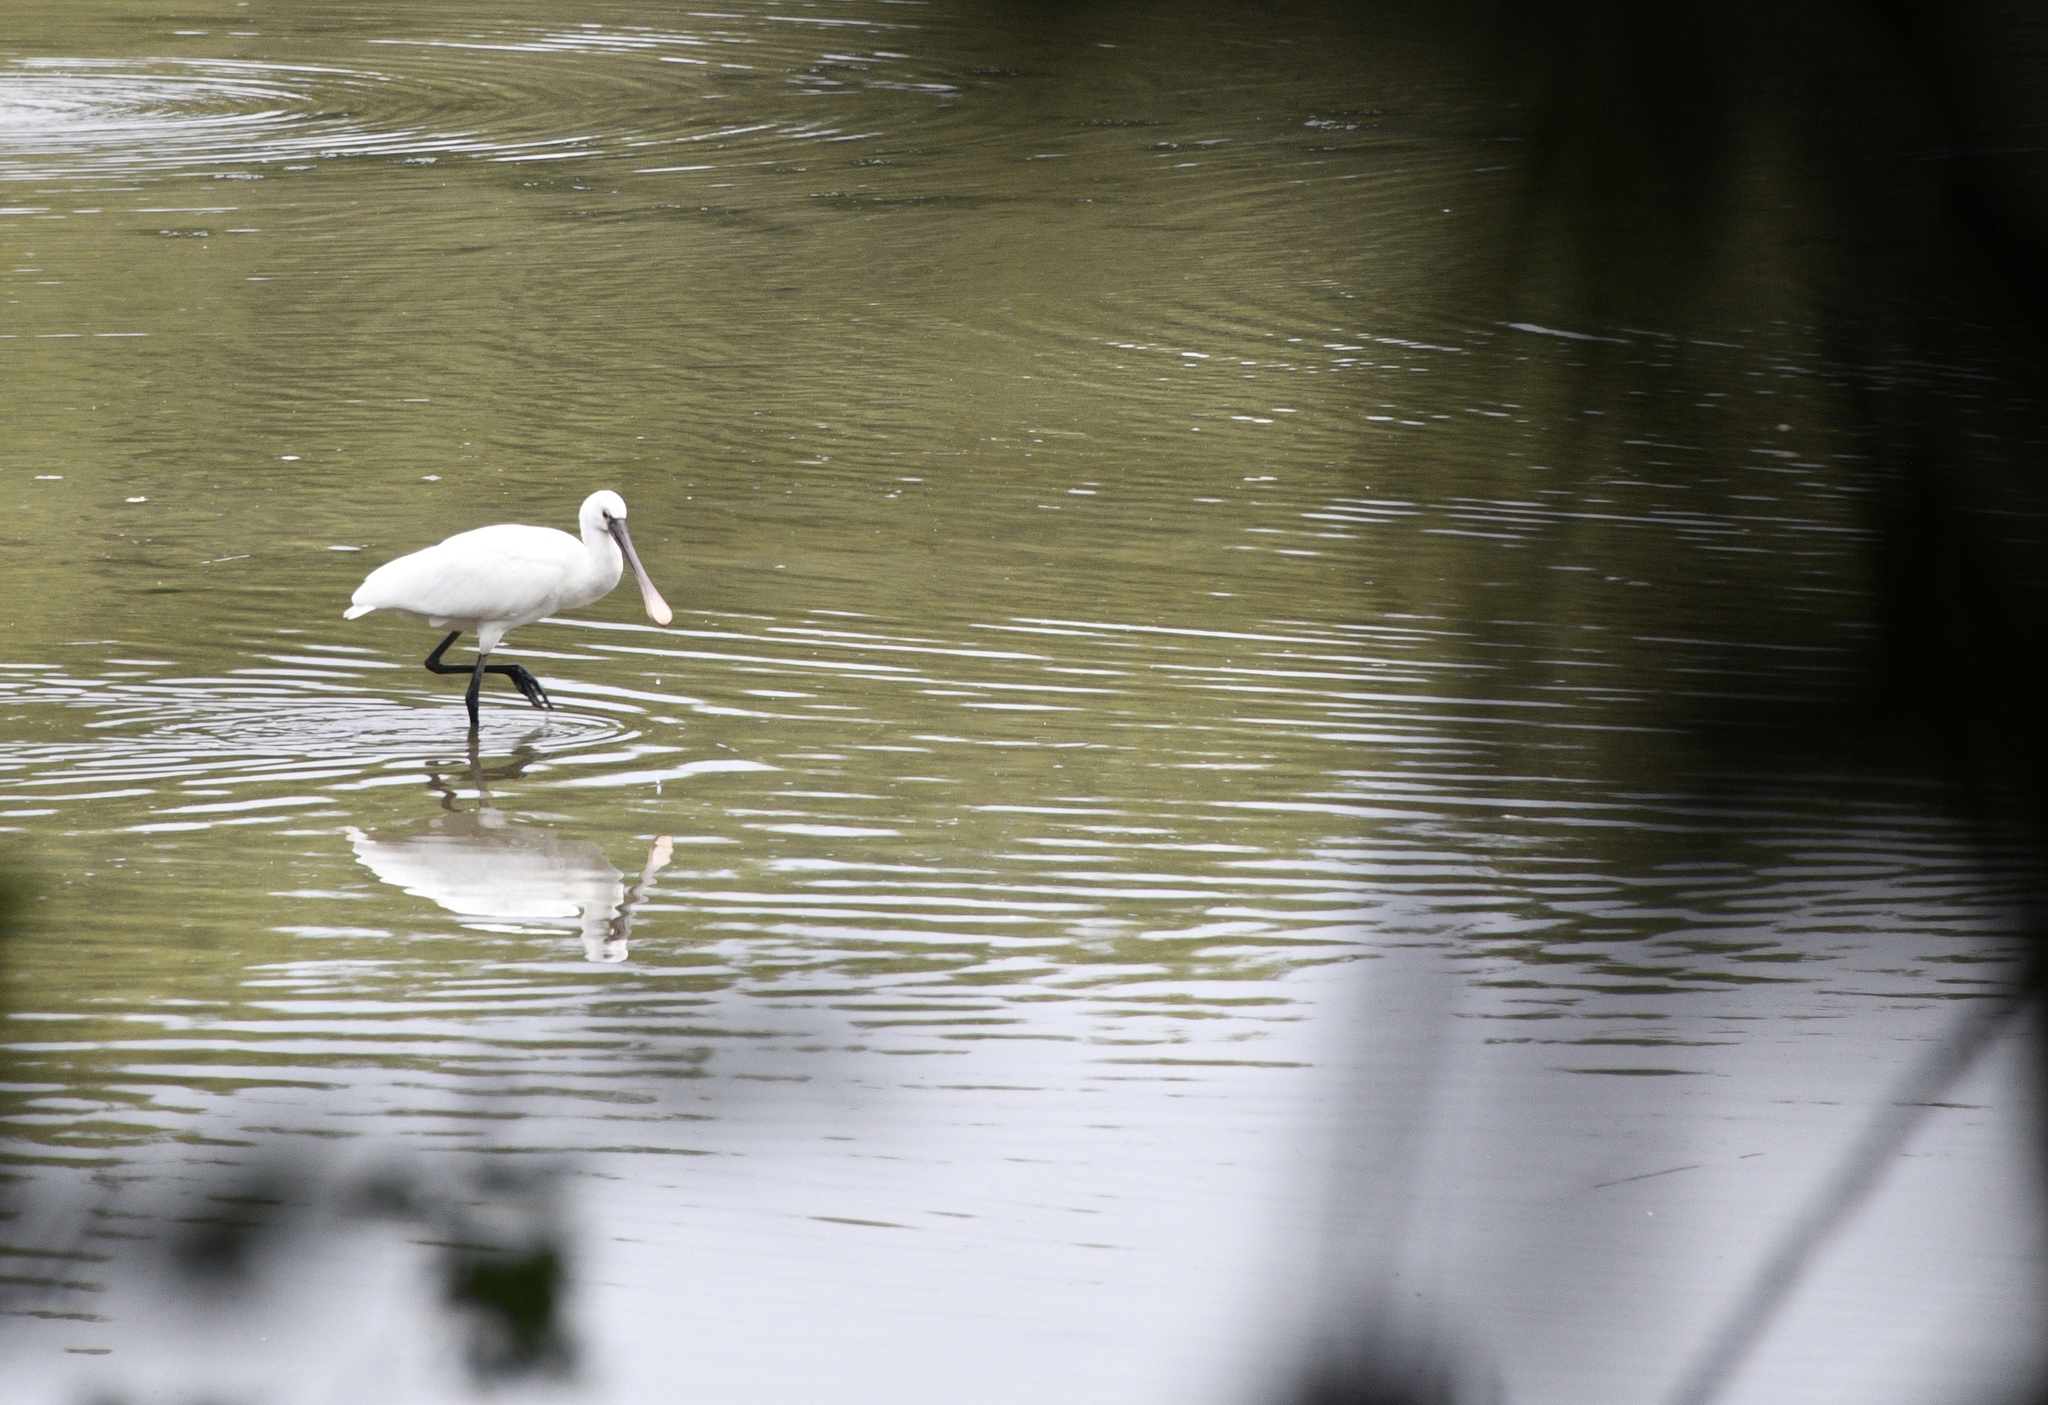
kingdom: Animalia
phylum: Chordata
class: Aves
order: Pelecaniformes
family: Threskiornithidae
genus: Platalea
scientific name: Platalea leucorodia
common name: Eurasian spoonbill
